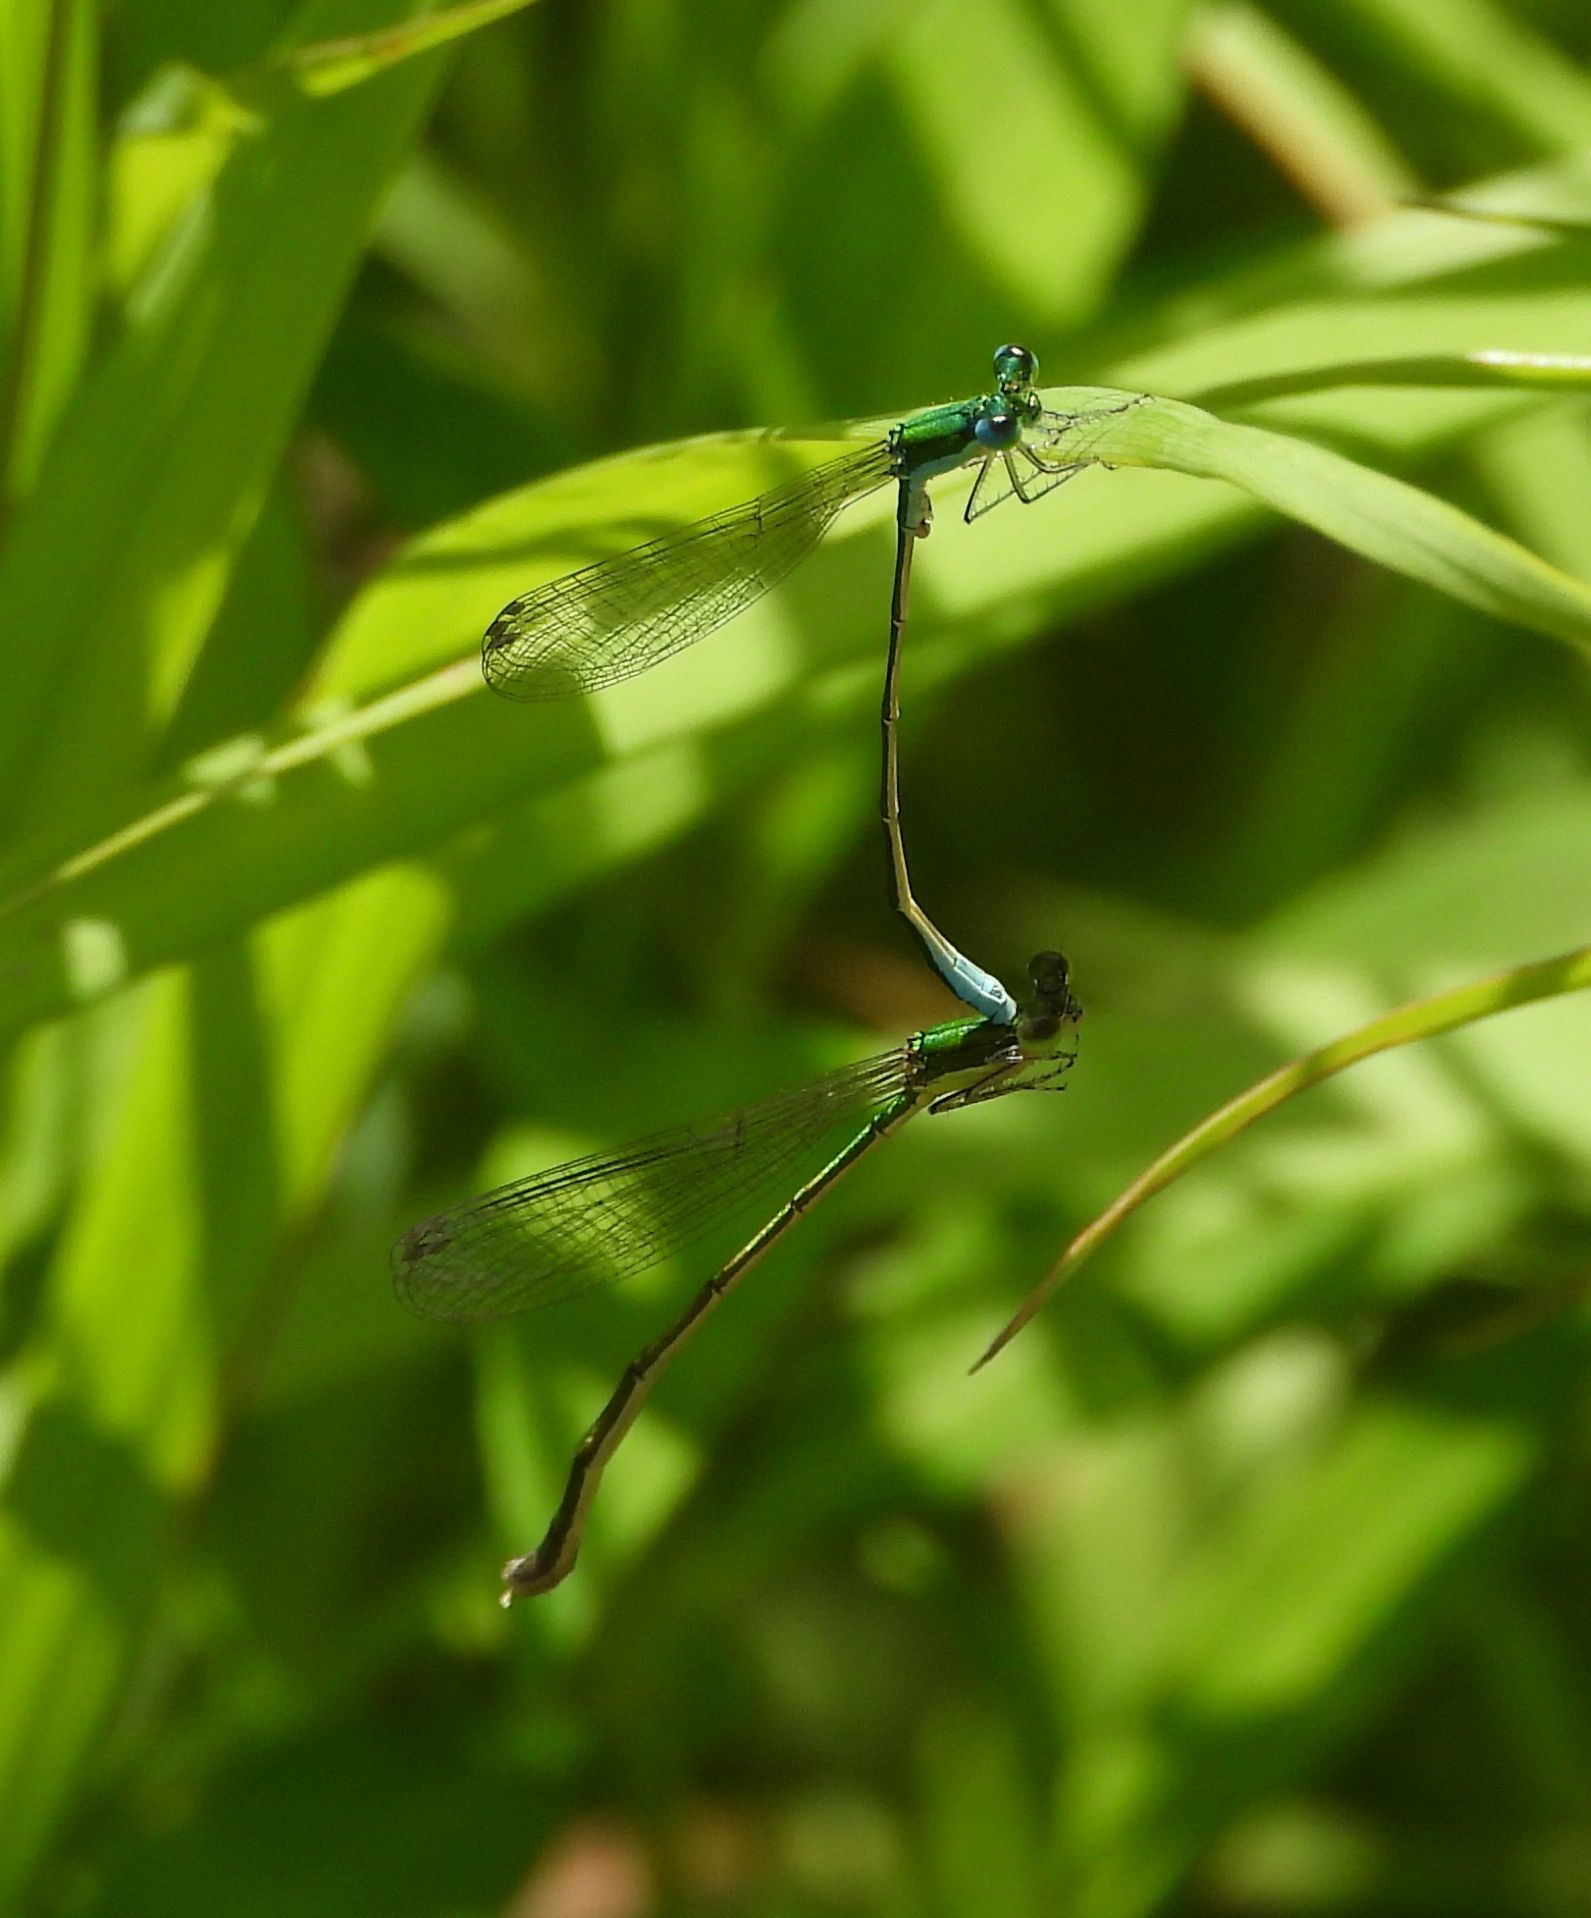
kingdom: Animalia
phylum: Arthropoda
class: Insecta
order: Odonata
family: Coenagrionidae
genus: Nehalennia
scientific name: Nehalennia irene
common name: Sedge sprite
